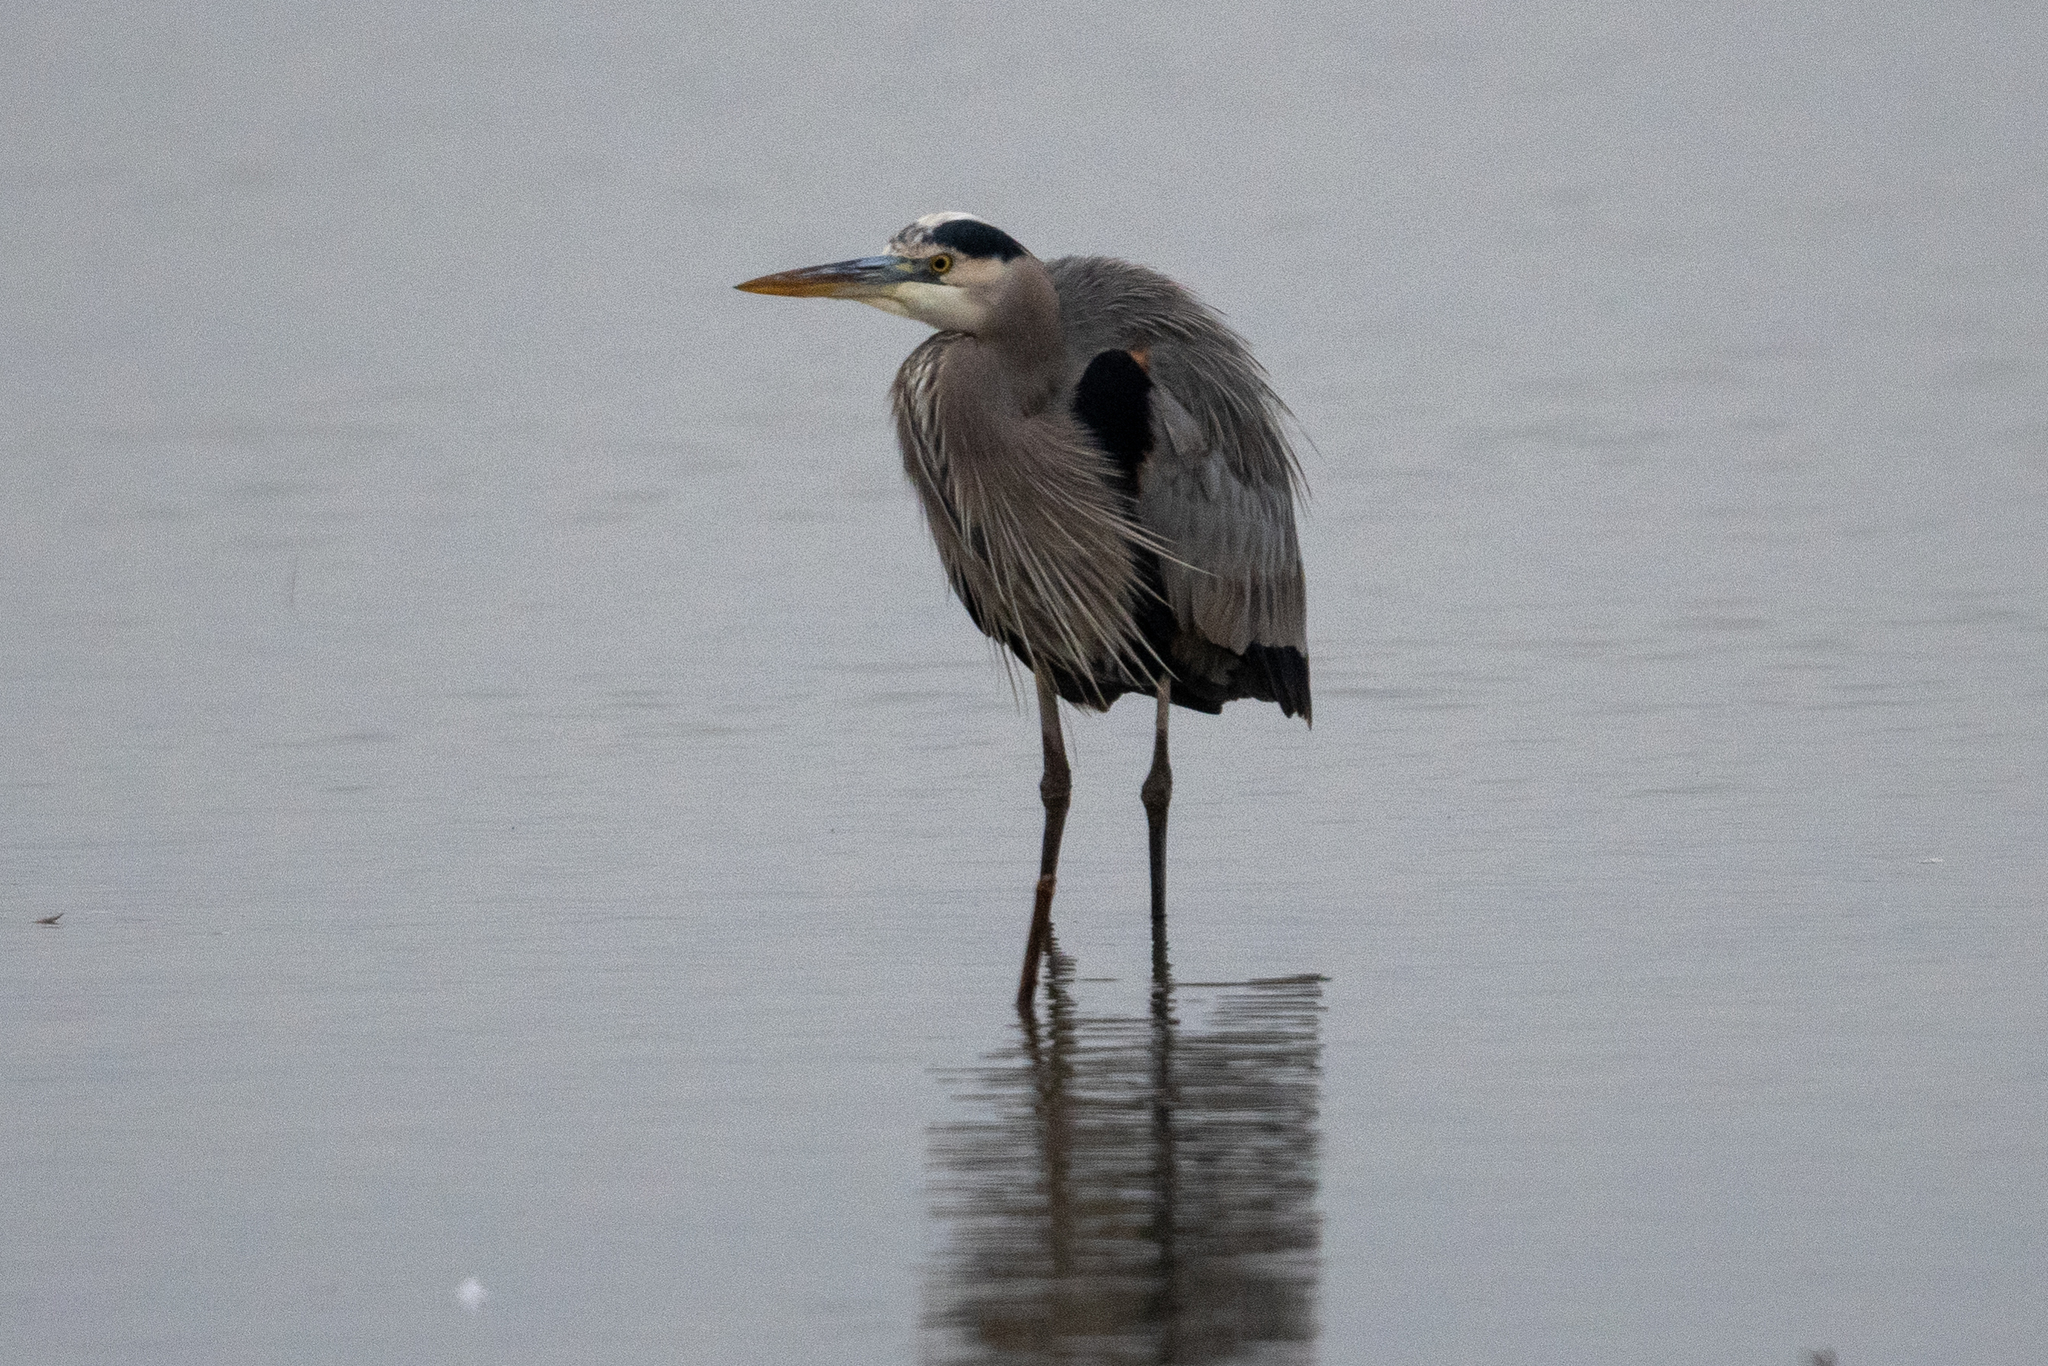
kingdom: Animalia
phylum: Chordata
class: Aves
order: Pelecaniformes
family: Ardeidae
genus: Ardea
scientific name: Ardea herodias
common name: Great blue heron
